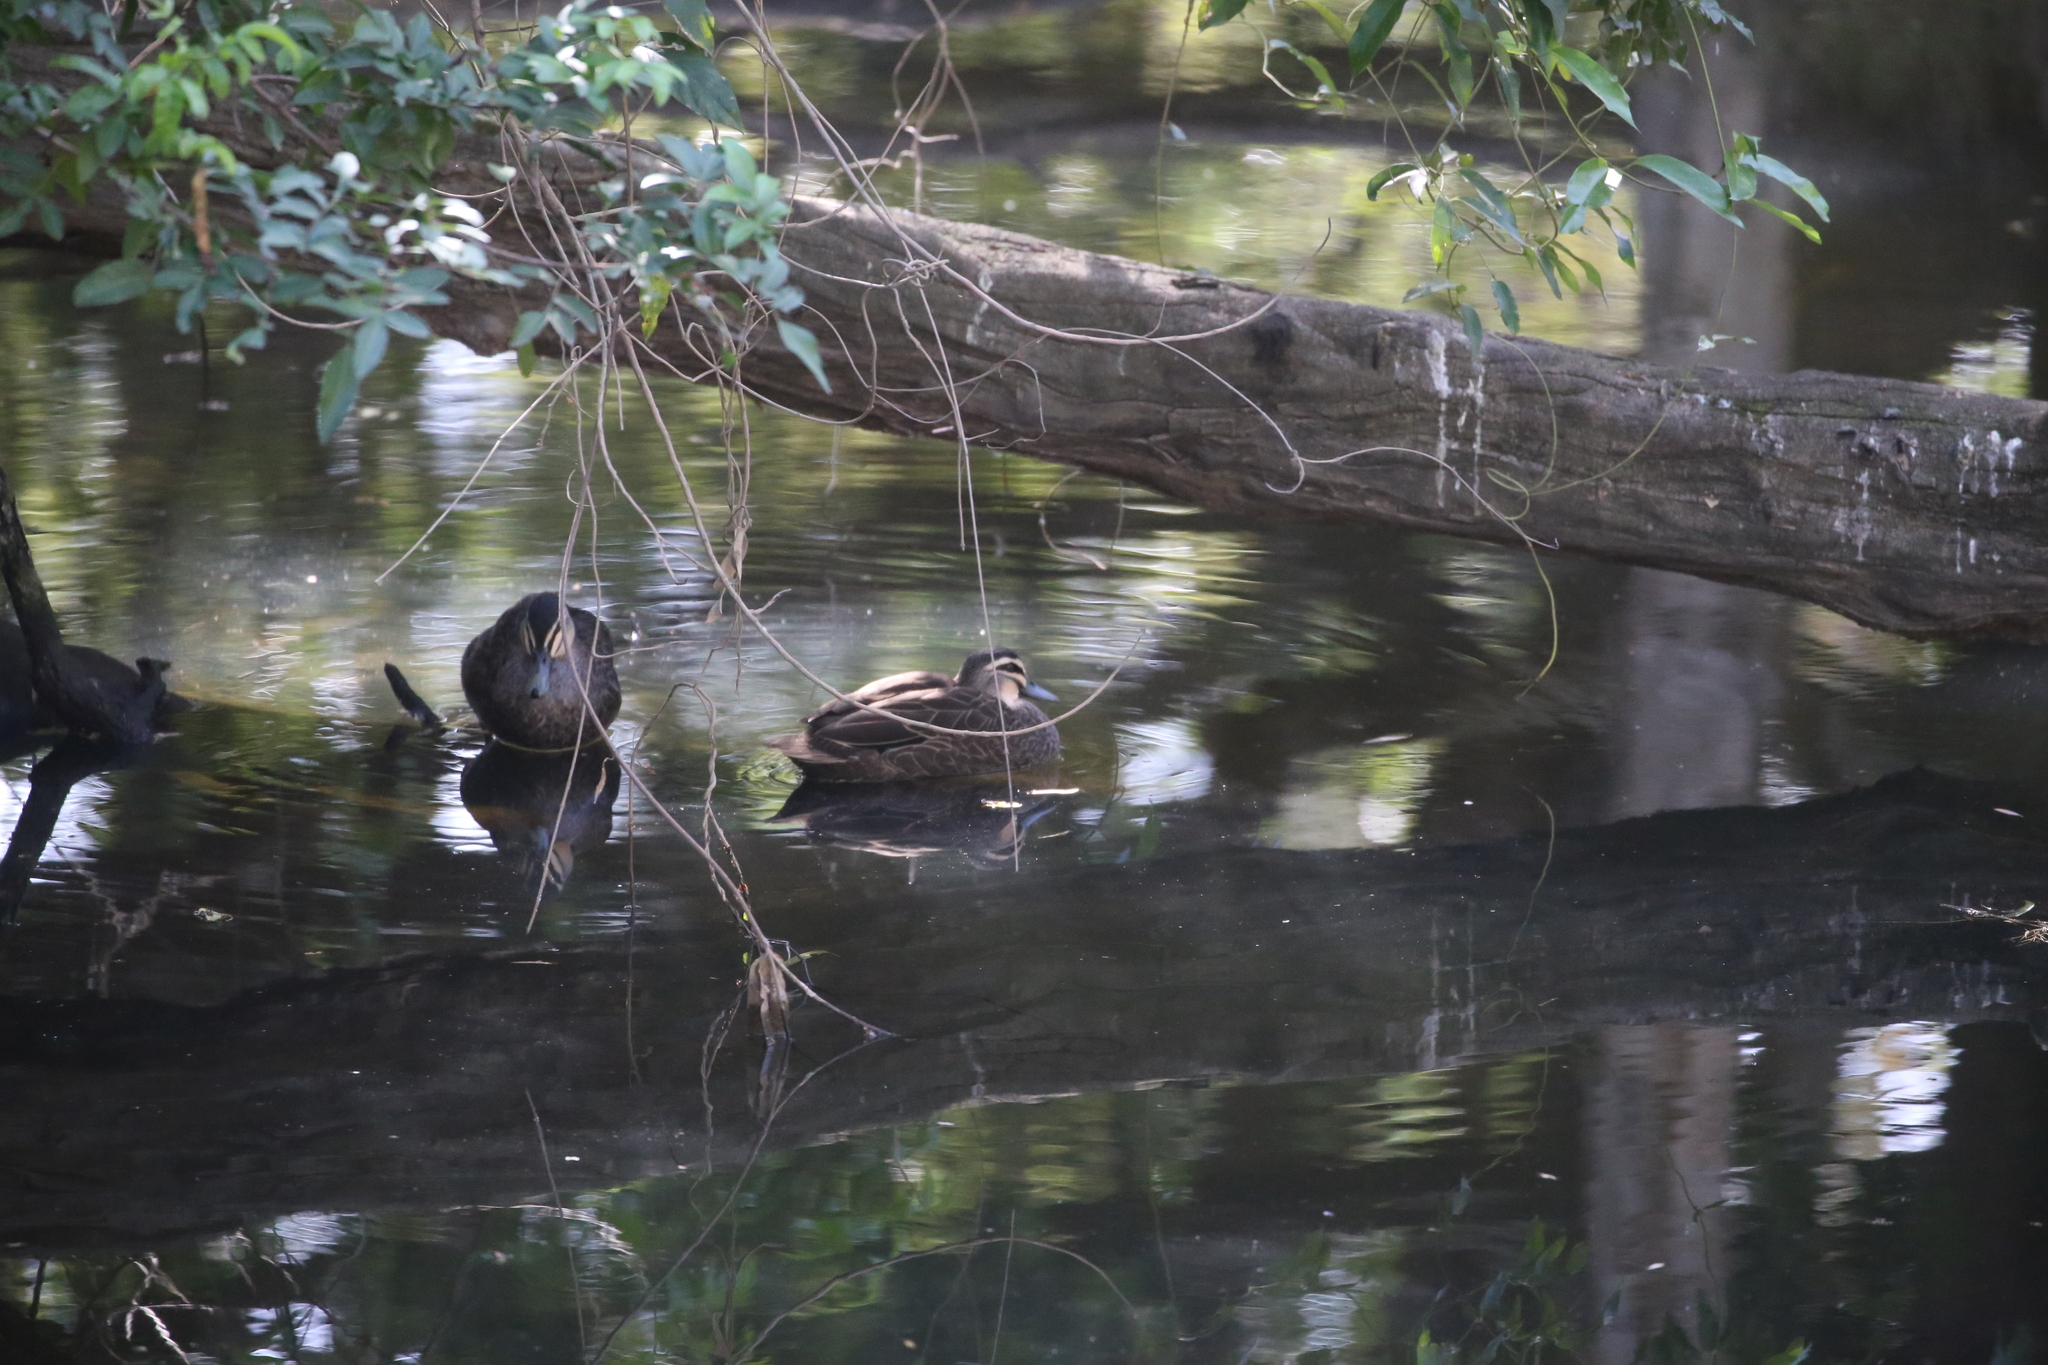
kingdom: Animalia
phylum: Chordata
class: Aves
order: Anseriformes
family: Anatidae
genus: Anas
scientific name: Anas superciliosa
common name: Pacific black duck
